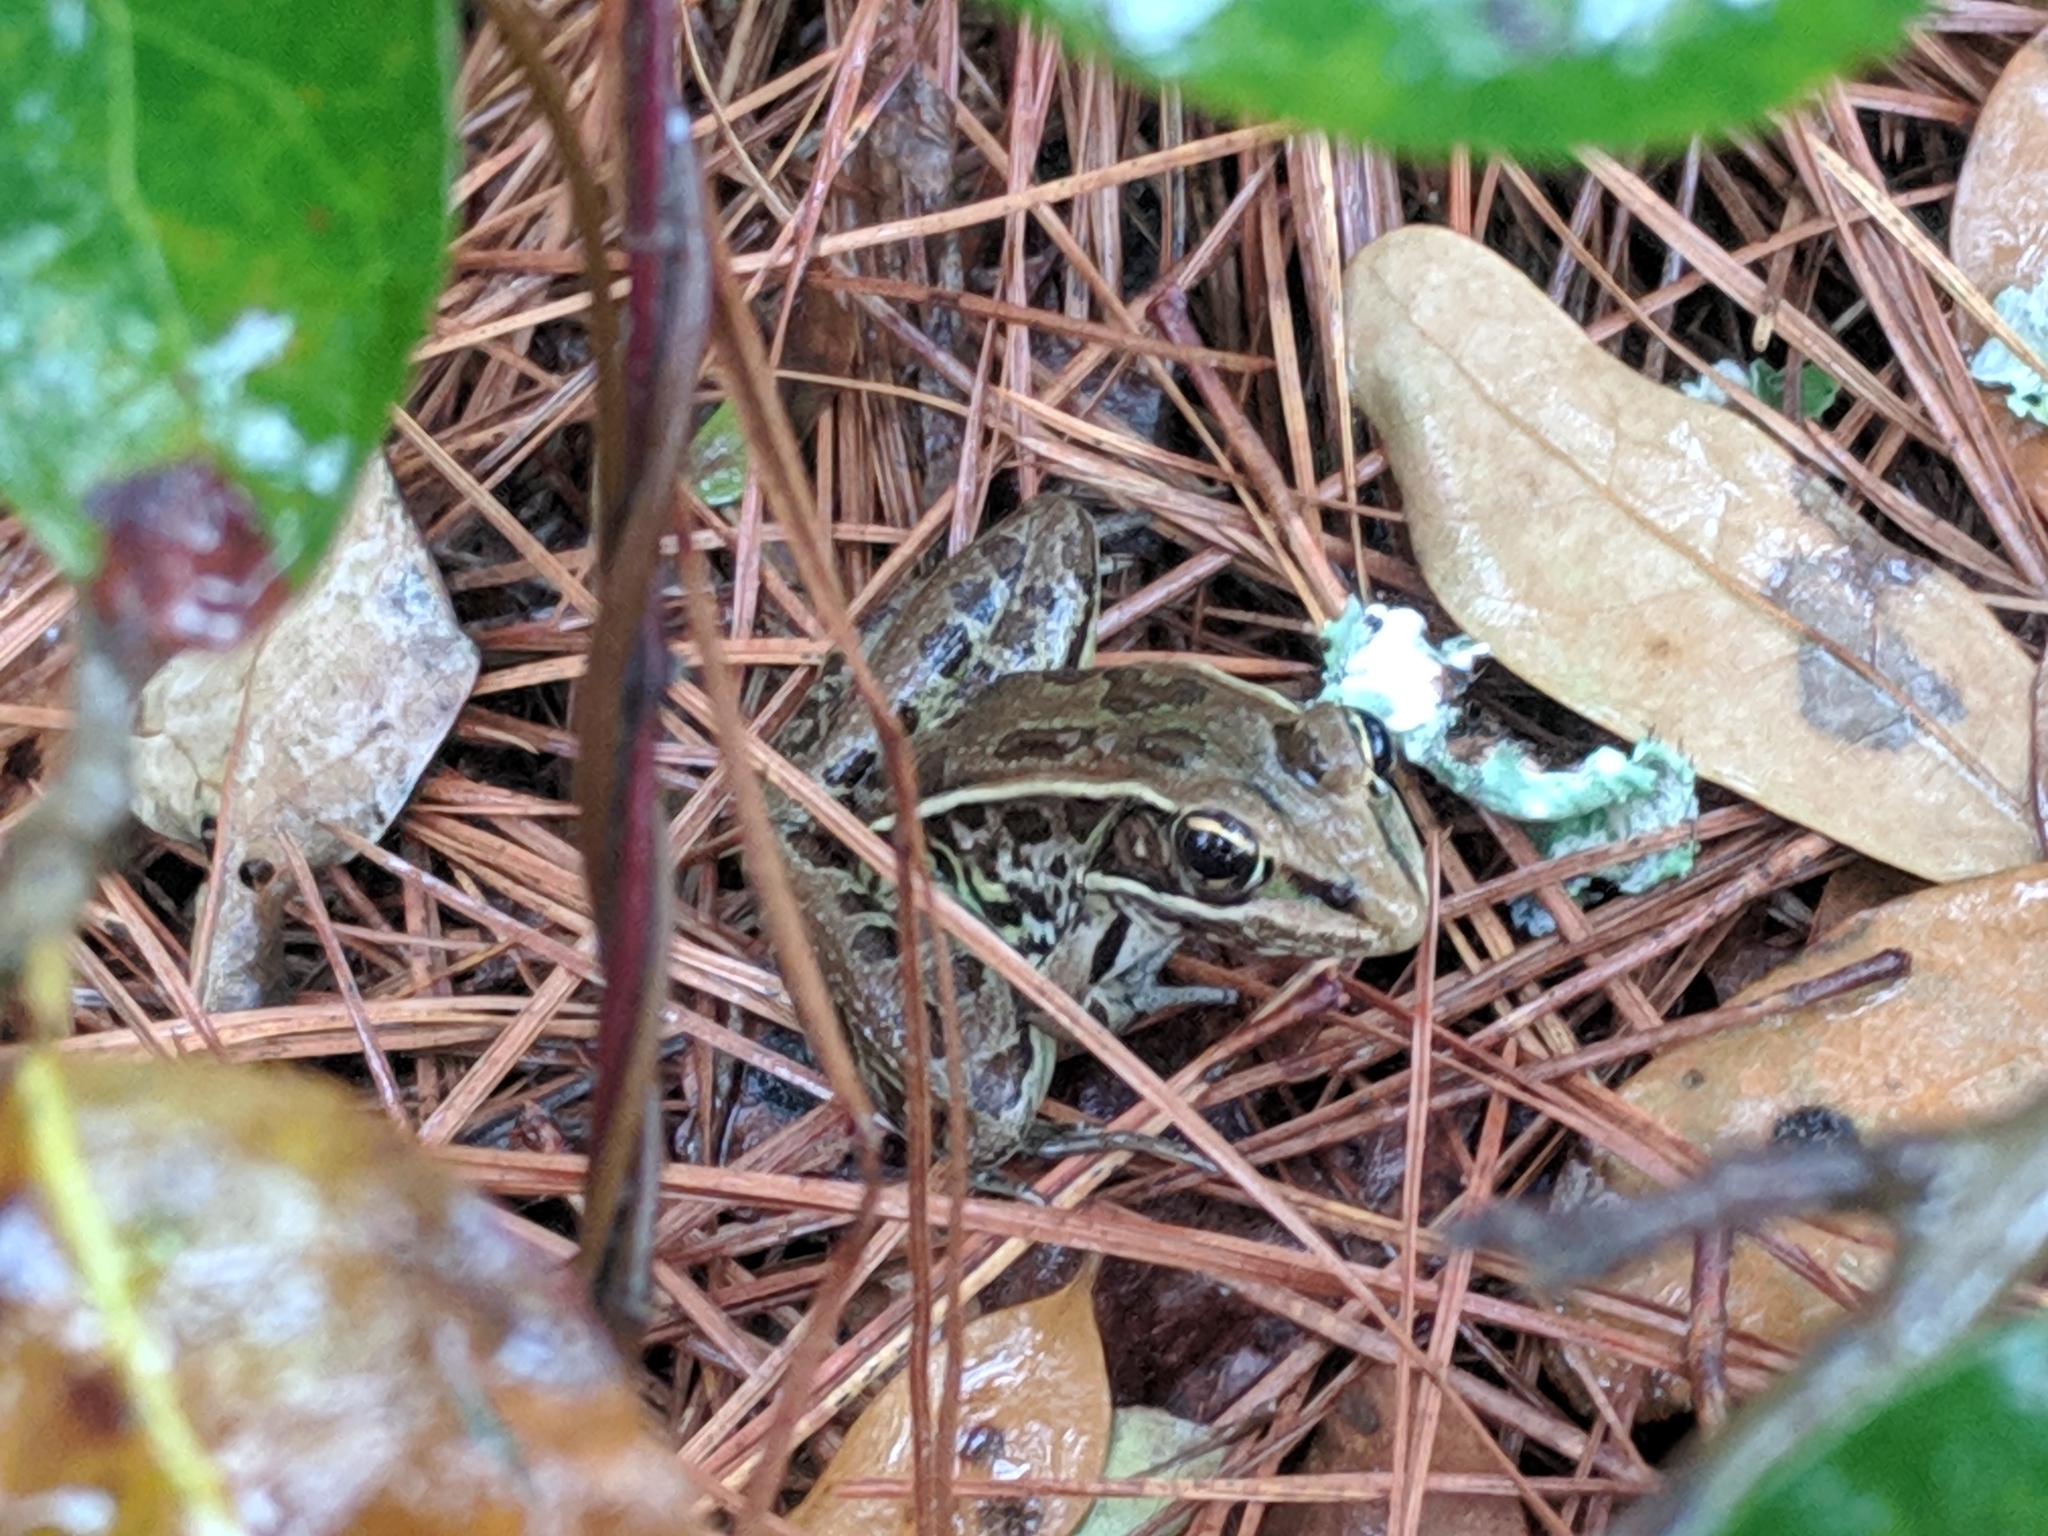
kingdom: Animalia
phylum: Chordata
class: Amphibia
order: Anura
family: Ranidae
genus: Lithobates
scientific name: Lithobates sphenocephalus
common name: Southern leopard frog
